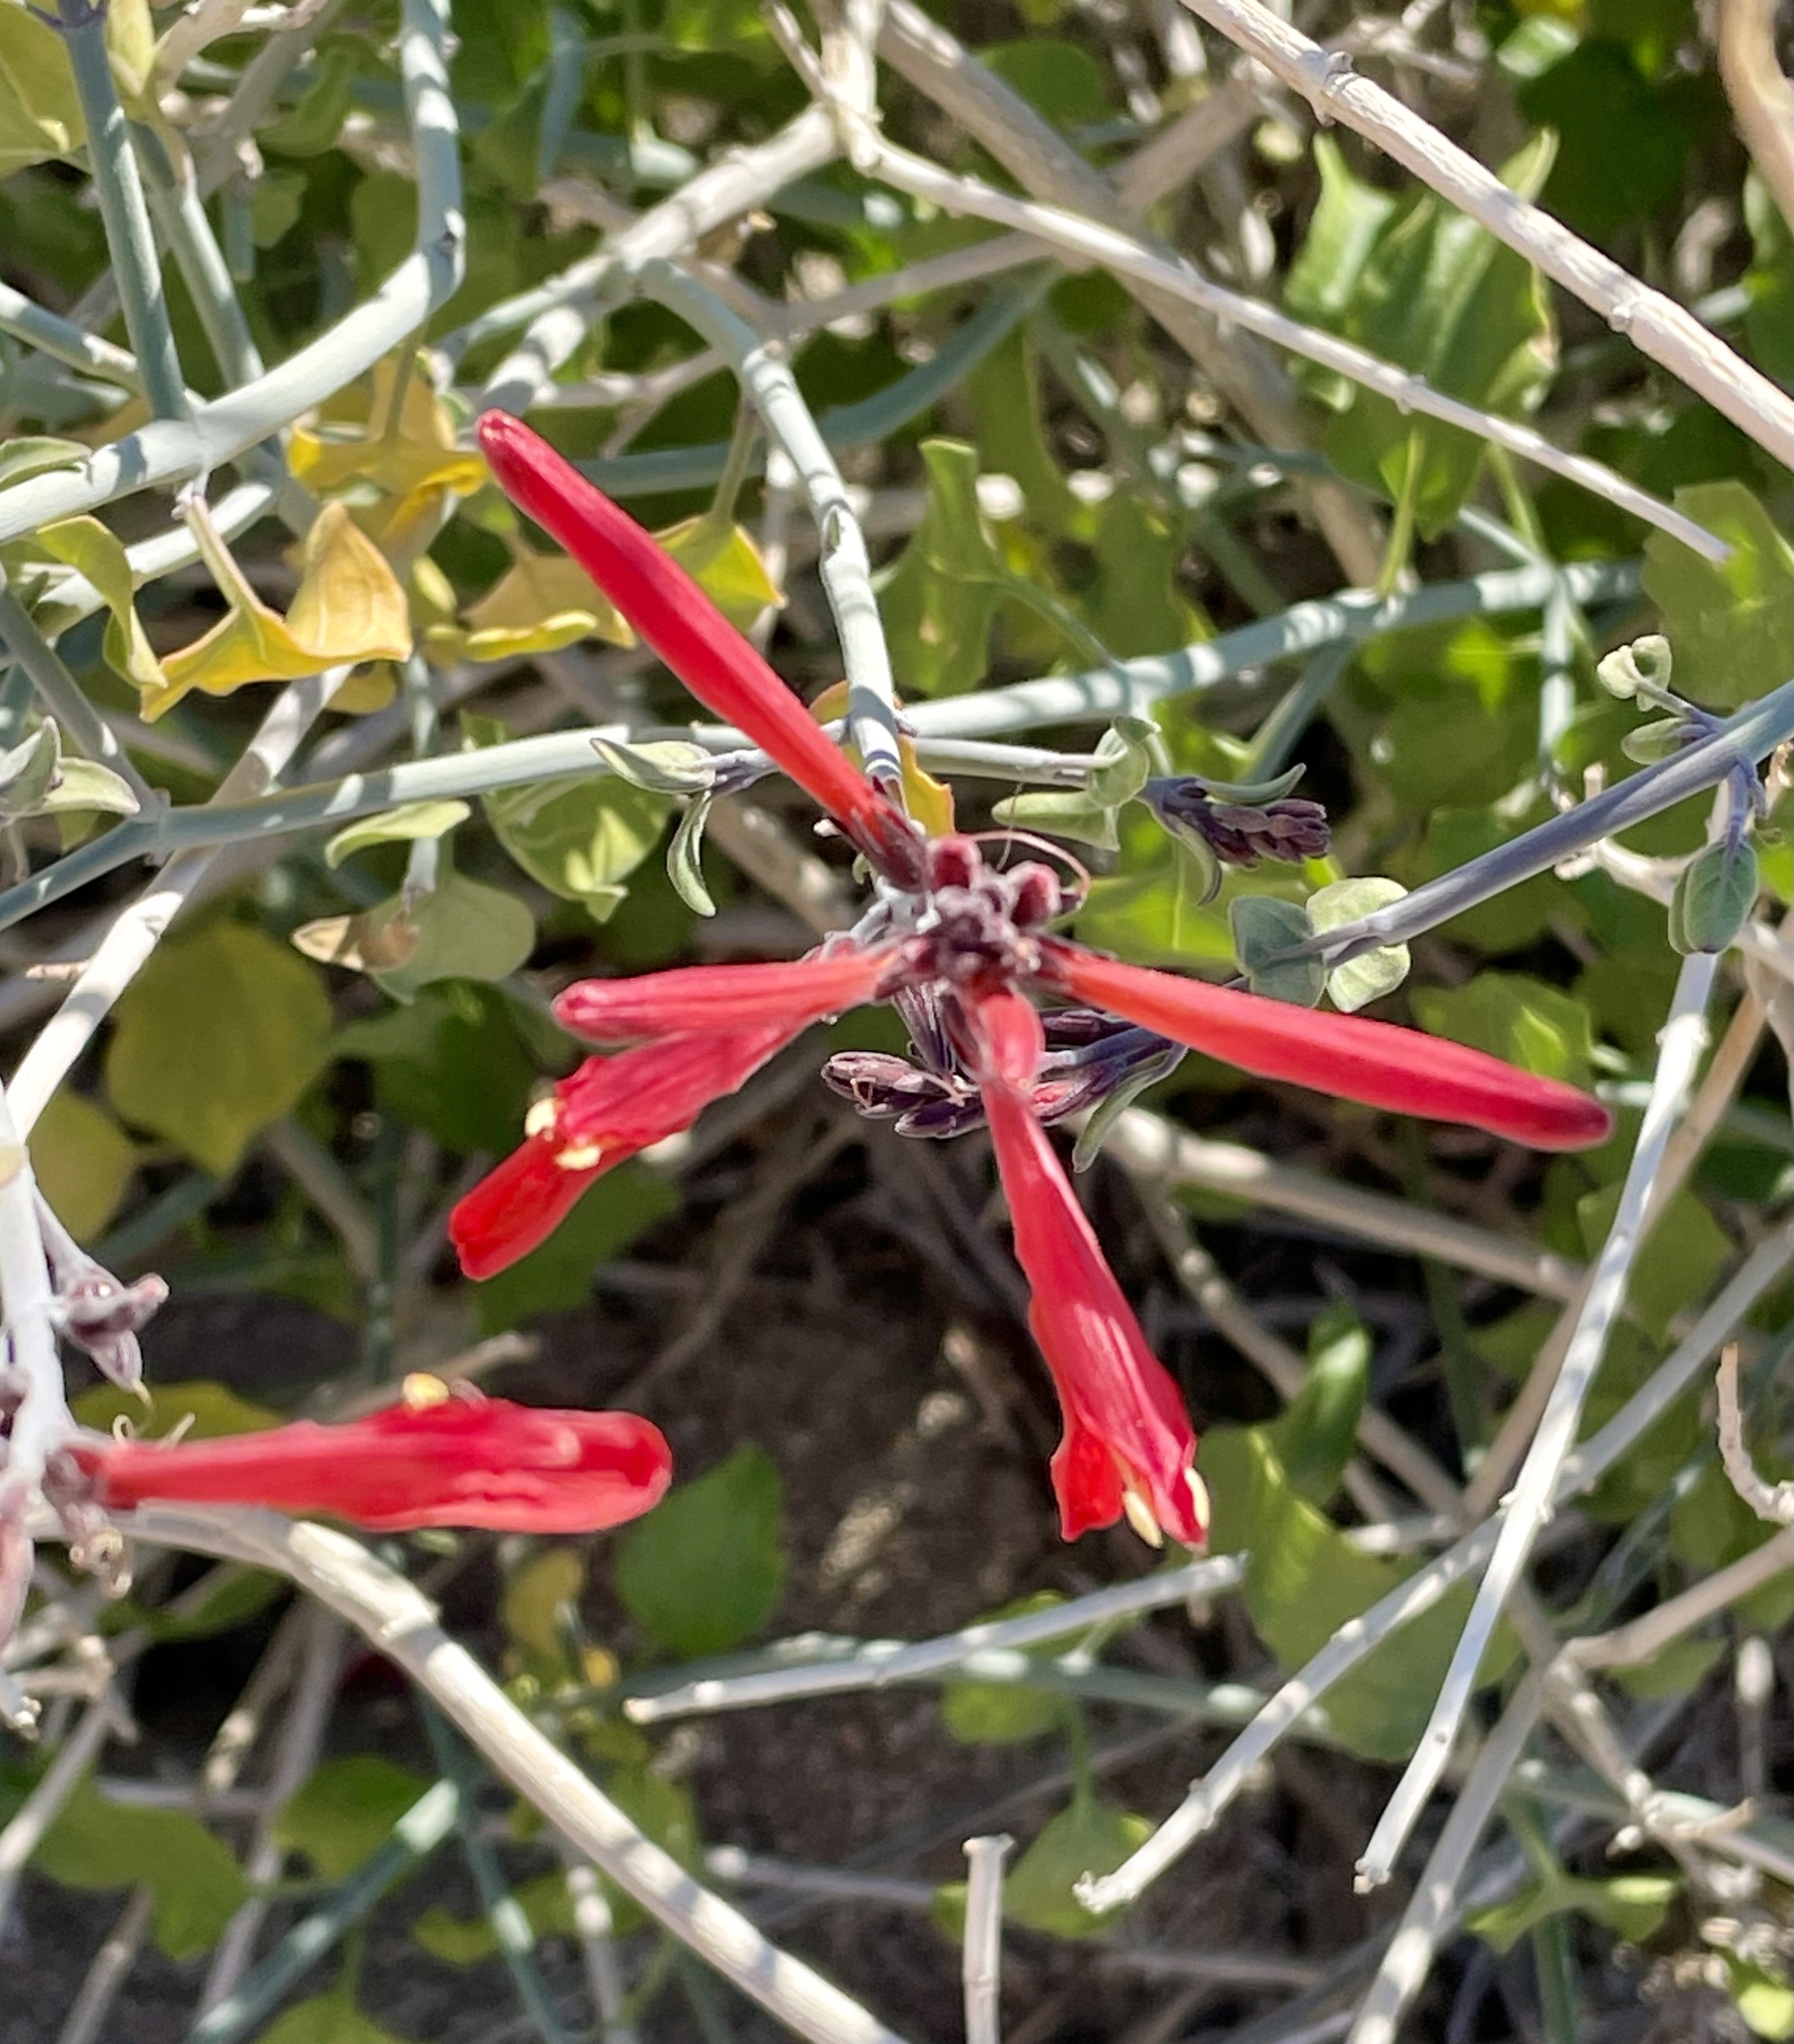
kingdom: Plantae
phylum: Tracheophyta
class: Magnoliopsida
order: Lamiales
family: Acanthaceae
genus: Justicia
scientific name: Justicia californica
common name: Chuparosa-honeysuckle
